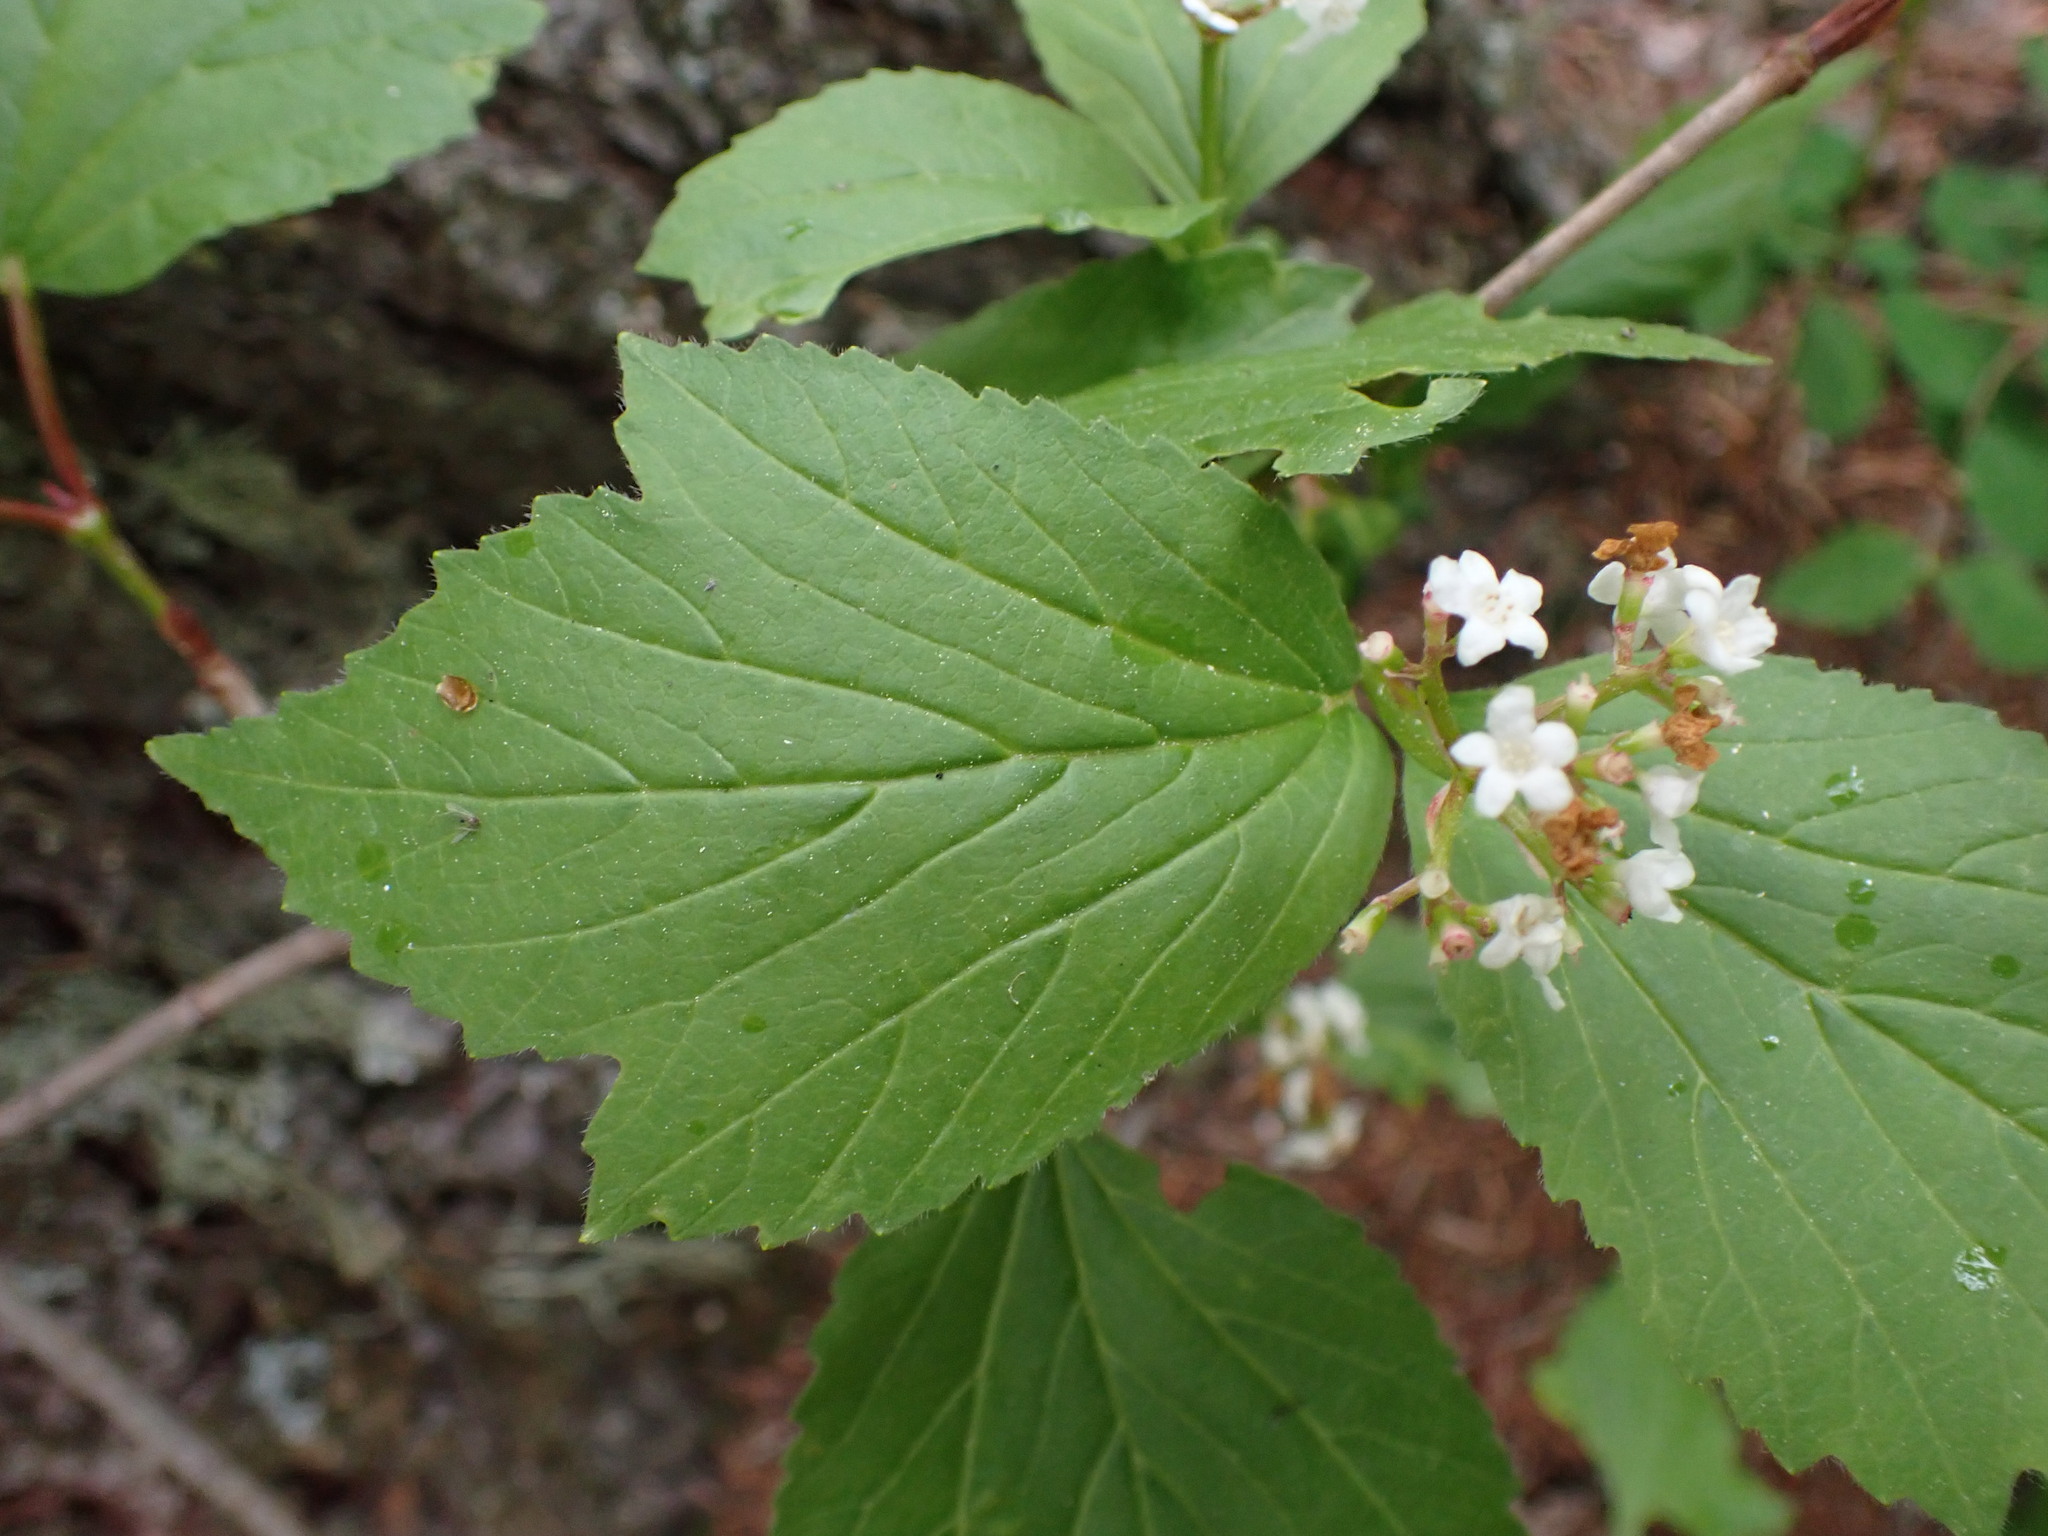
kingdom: Plantae
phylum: Tracheophyta
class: Magnoliopsida
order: Dipsacales
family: Viburnaceae
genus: Viburnum
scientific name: Viburnum edule
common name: Mooseberry
